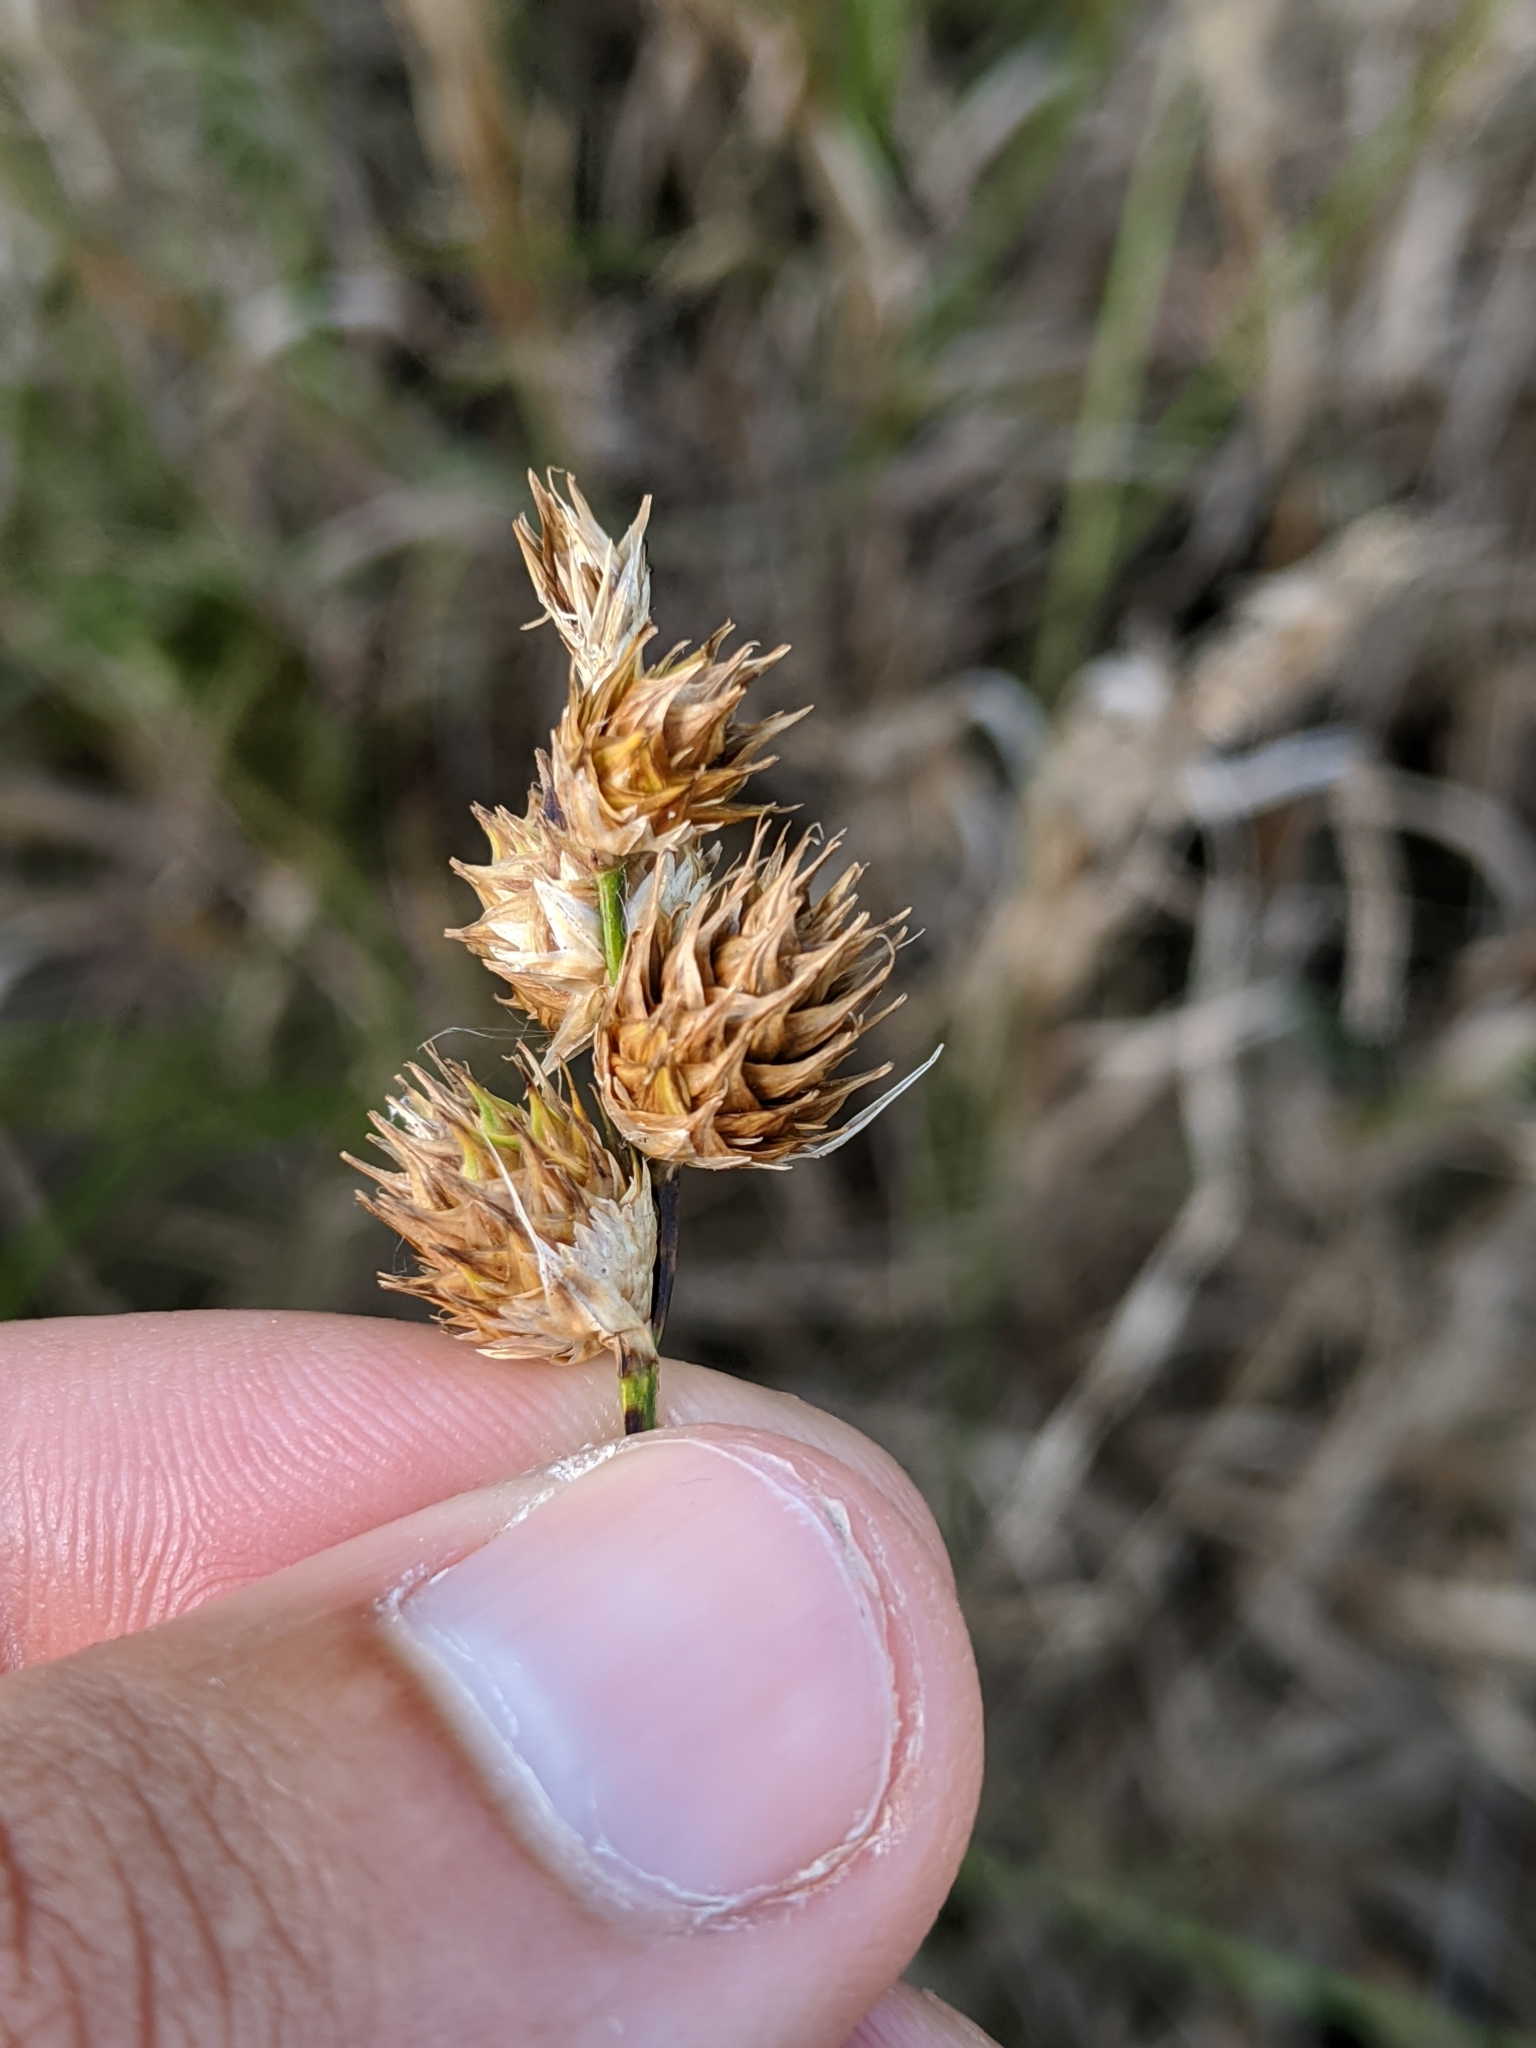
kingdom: Plantae
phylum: Tracheophyta
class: Liliopsida
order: Poales
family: Cyperaceae
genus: Carex
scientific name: Carex opaca
